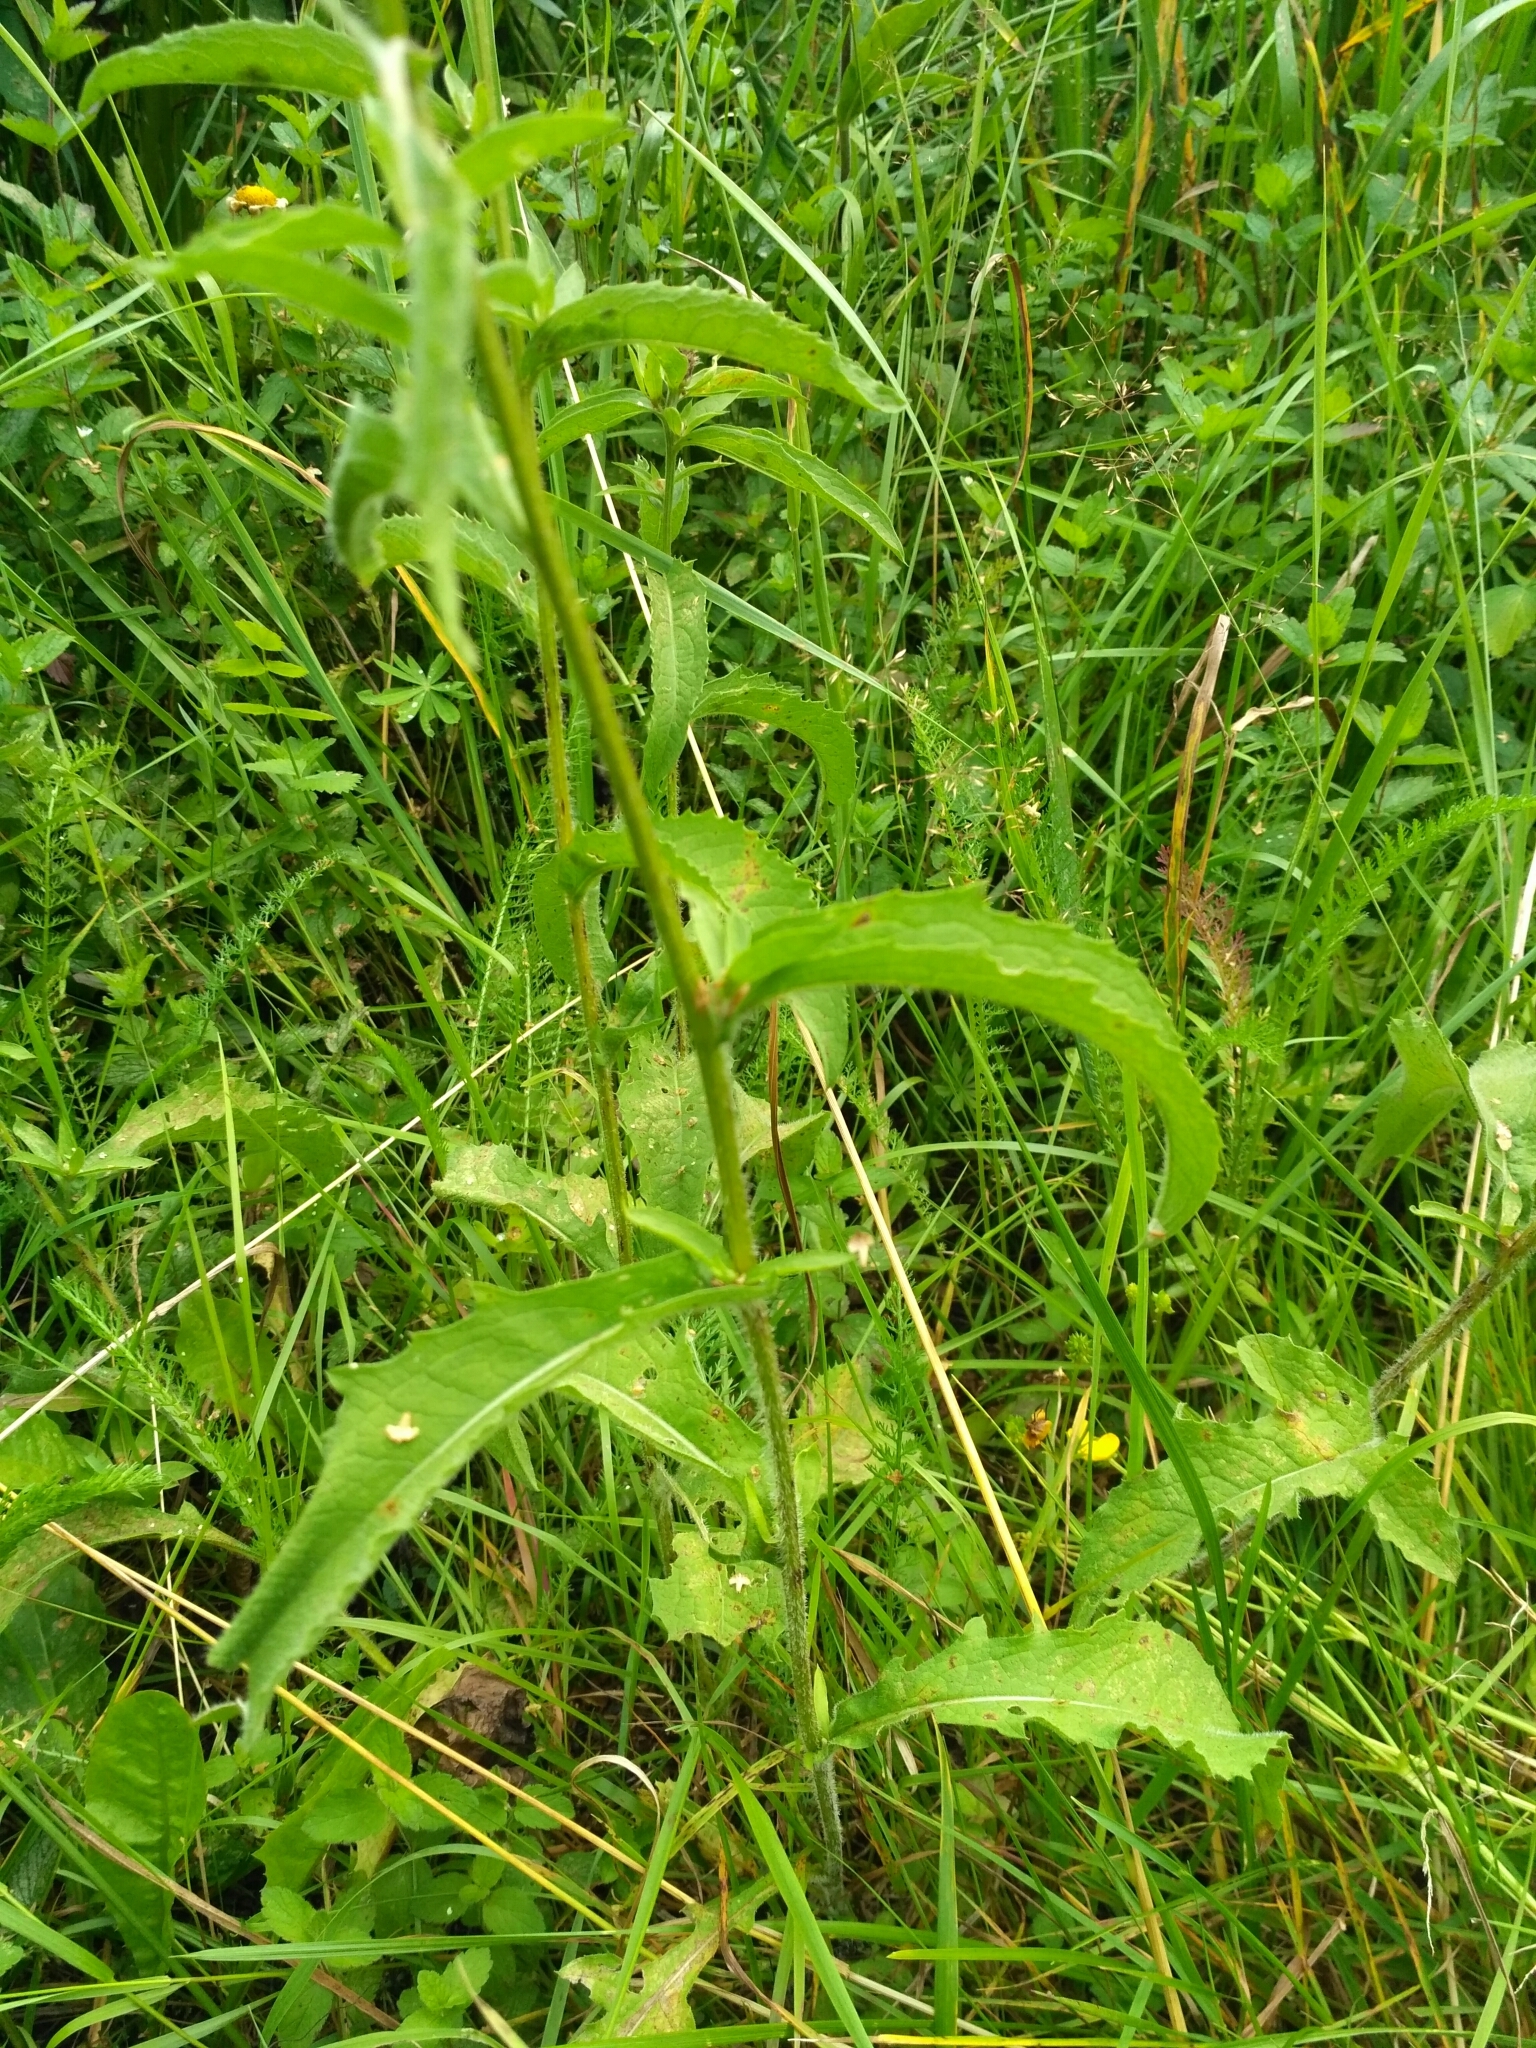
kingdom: Plantae
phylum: Tracheophyta
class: Magnoliopsida
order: Asterales
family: Asteraceae
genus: Centaurea
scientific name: Centaurea phrygia
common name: Wig knapweed
